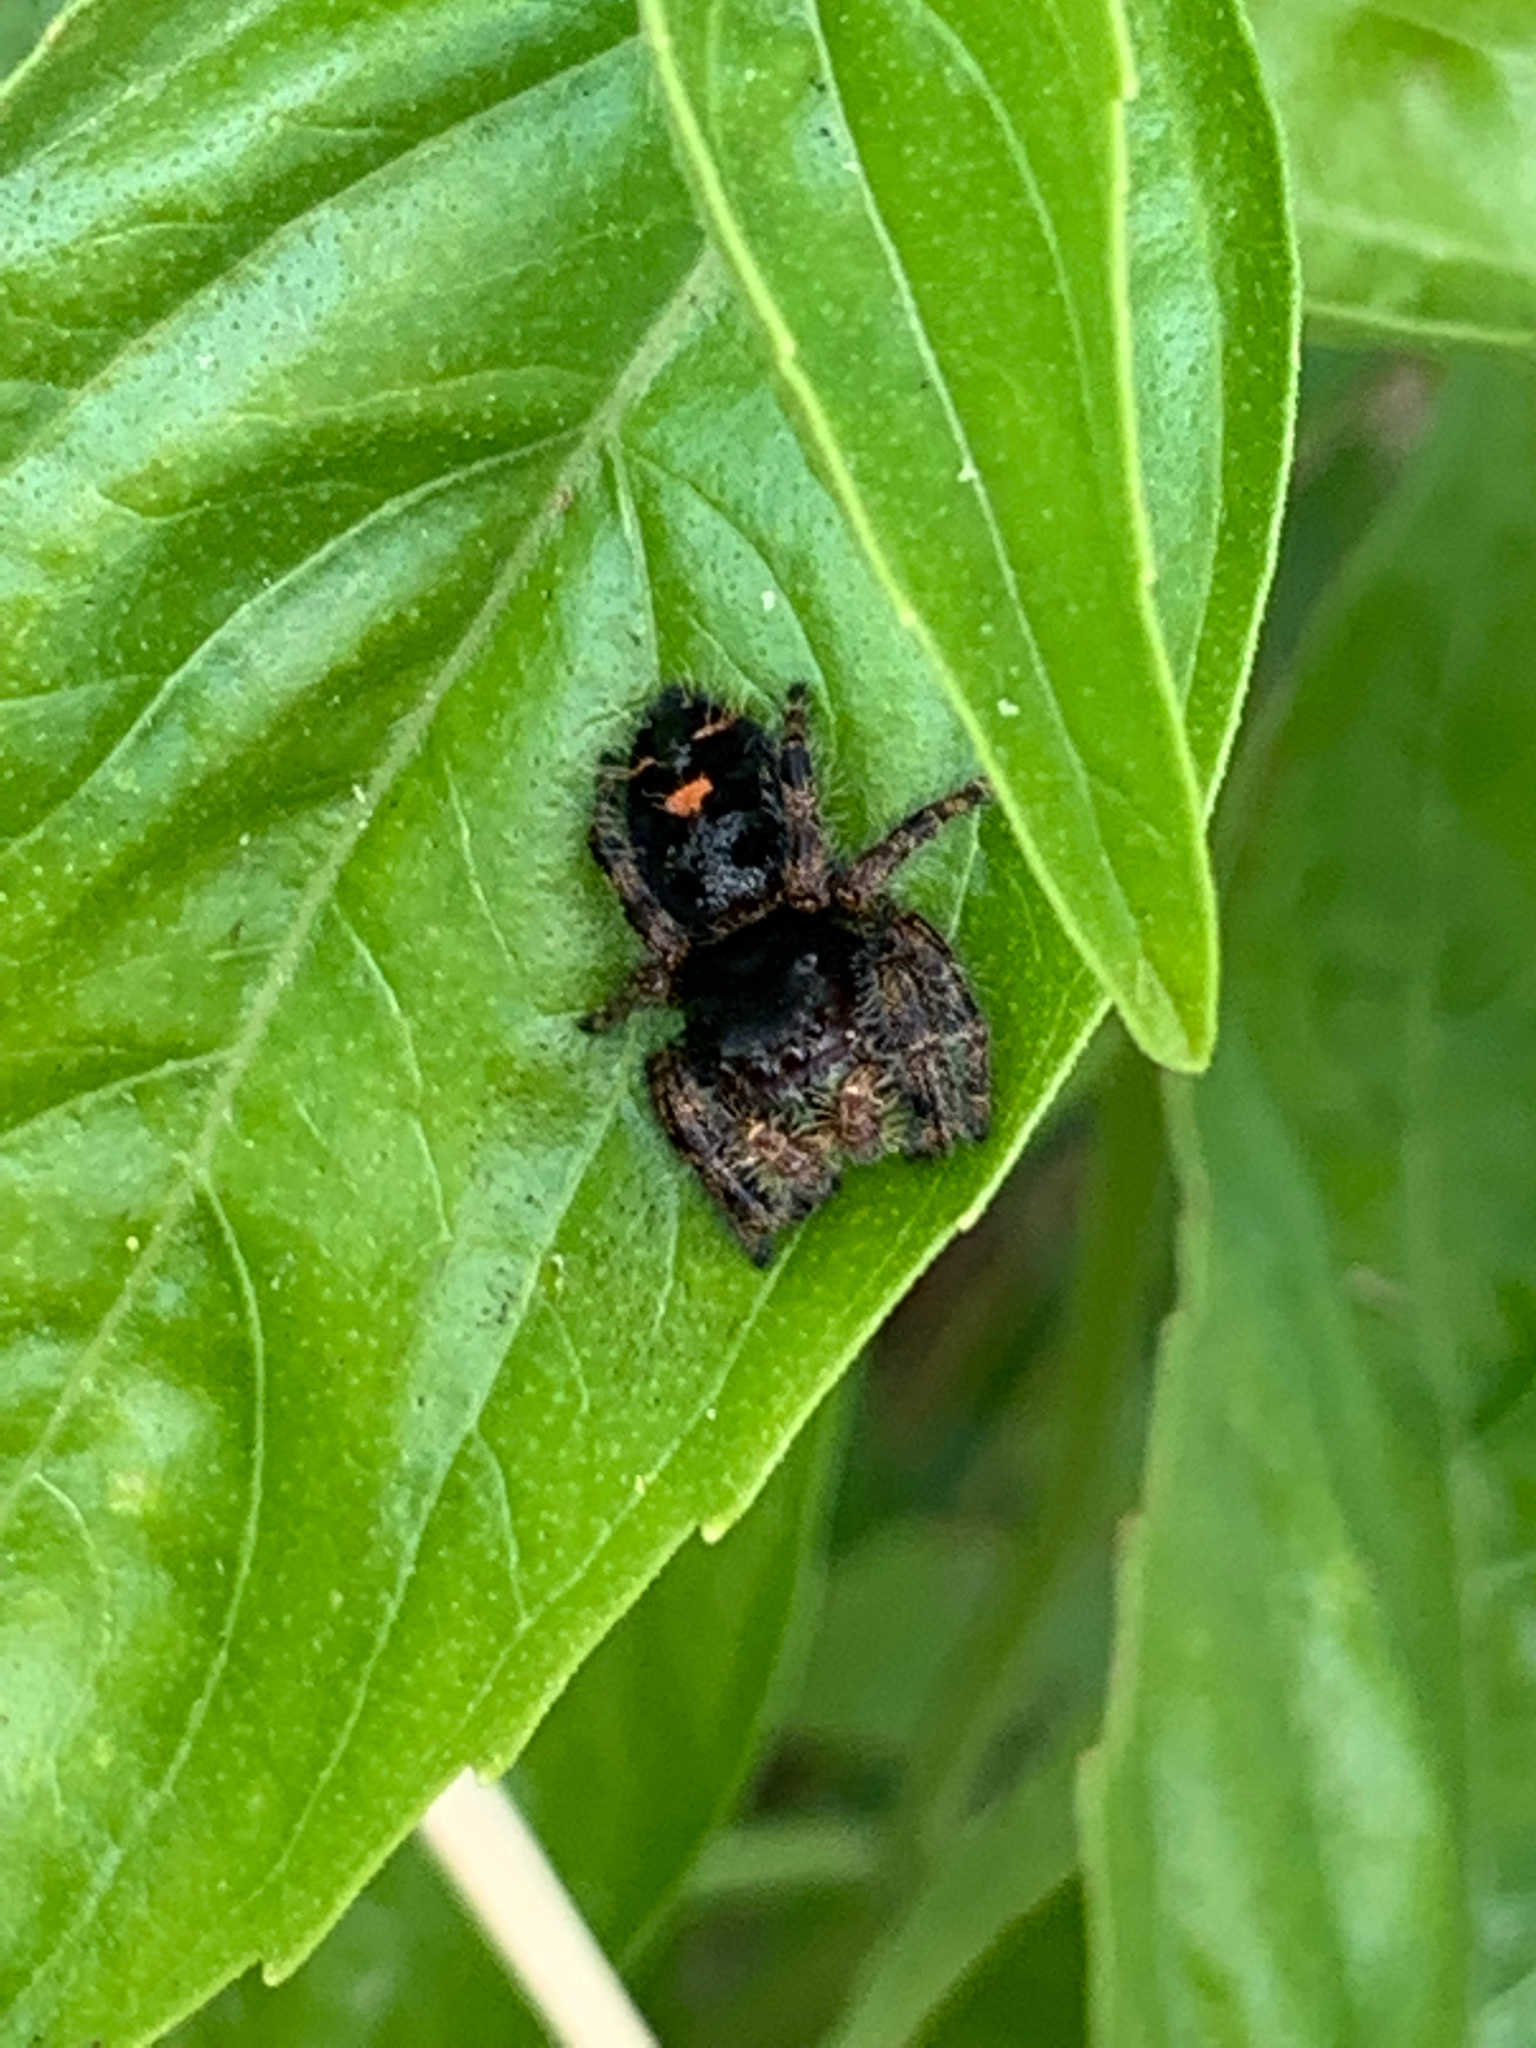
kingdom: Animalia
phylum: Arthropoda
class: Arachnida
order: Araneae
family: Salticidae
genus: Phidippus
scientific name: Phidippus audax
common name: Bold jumper
